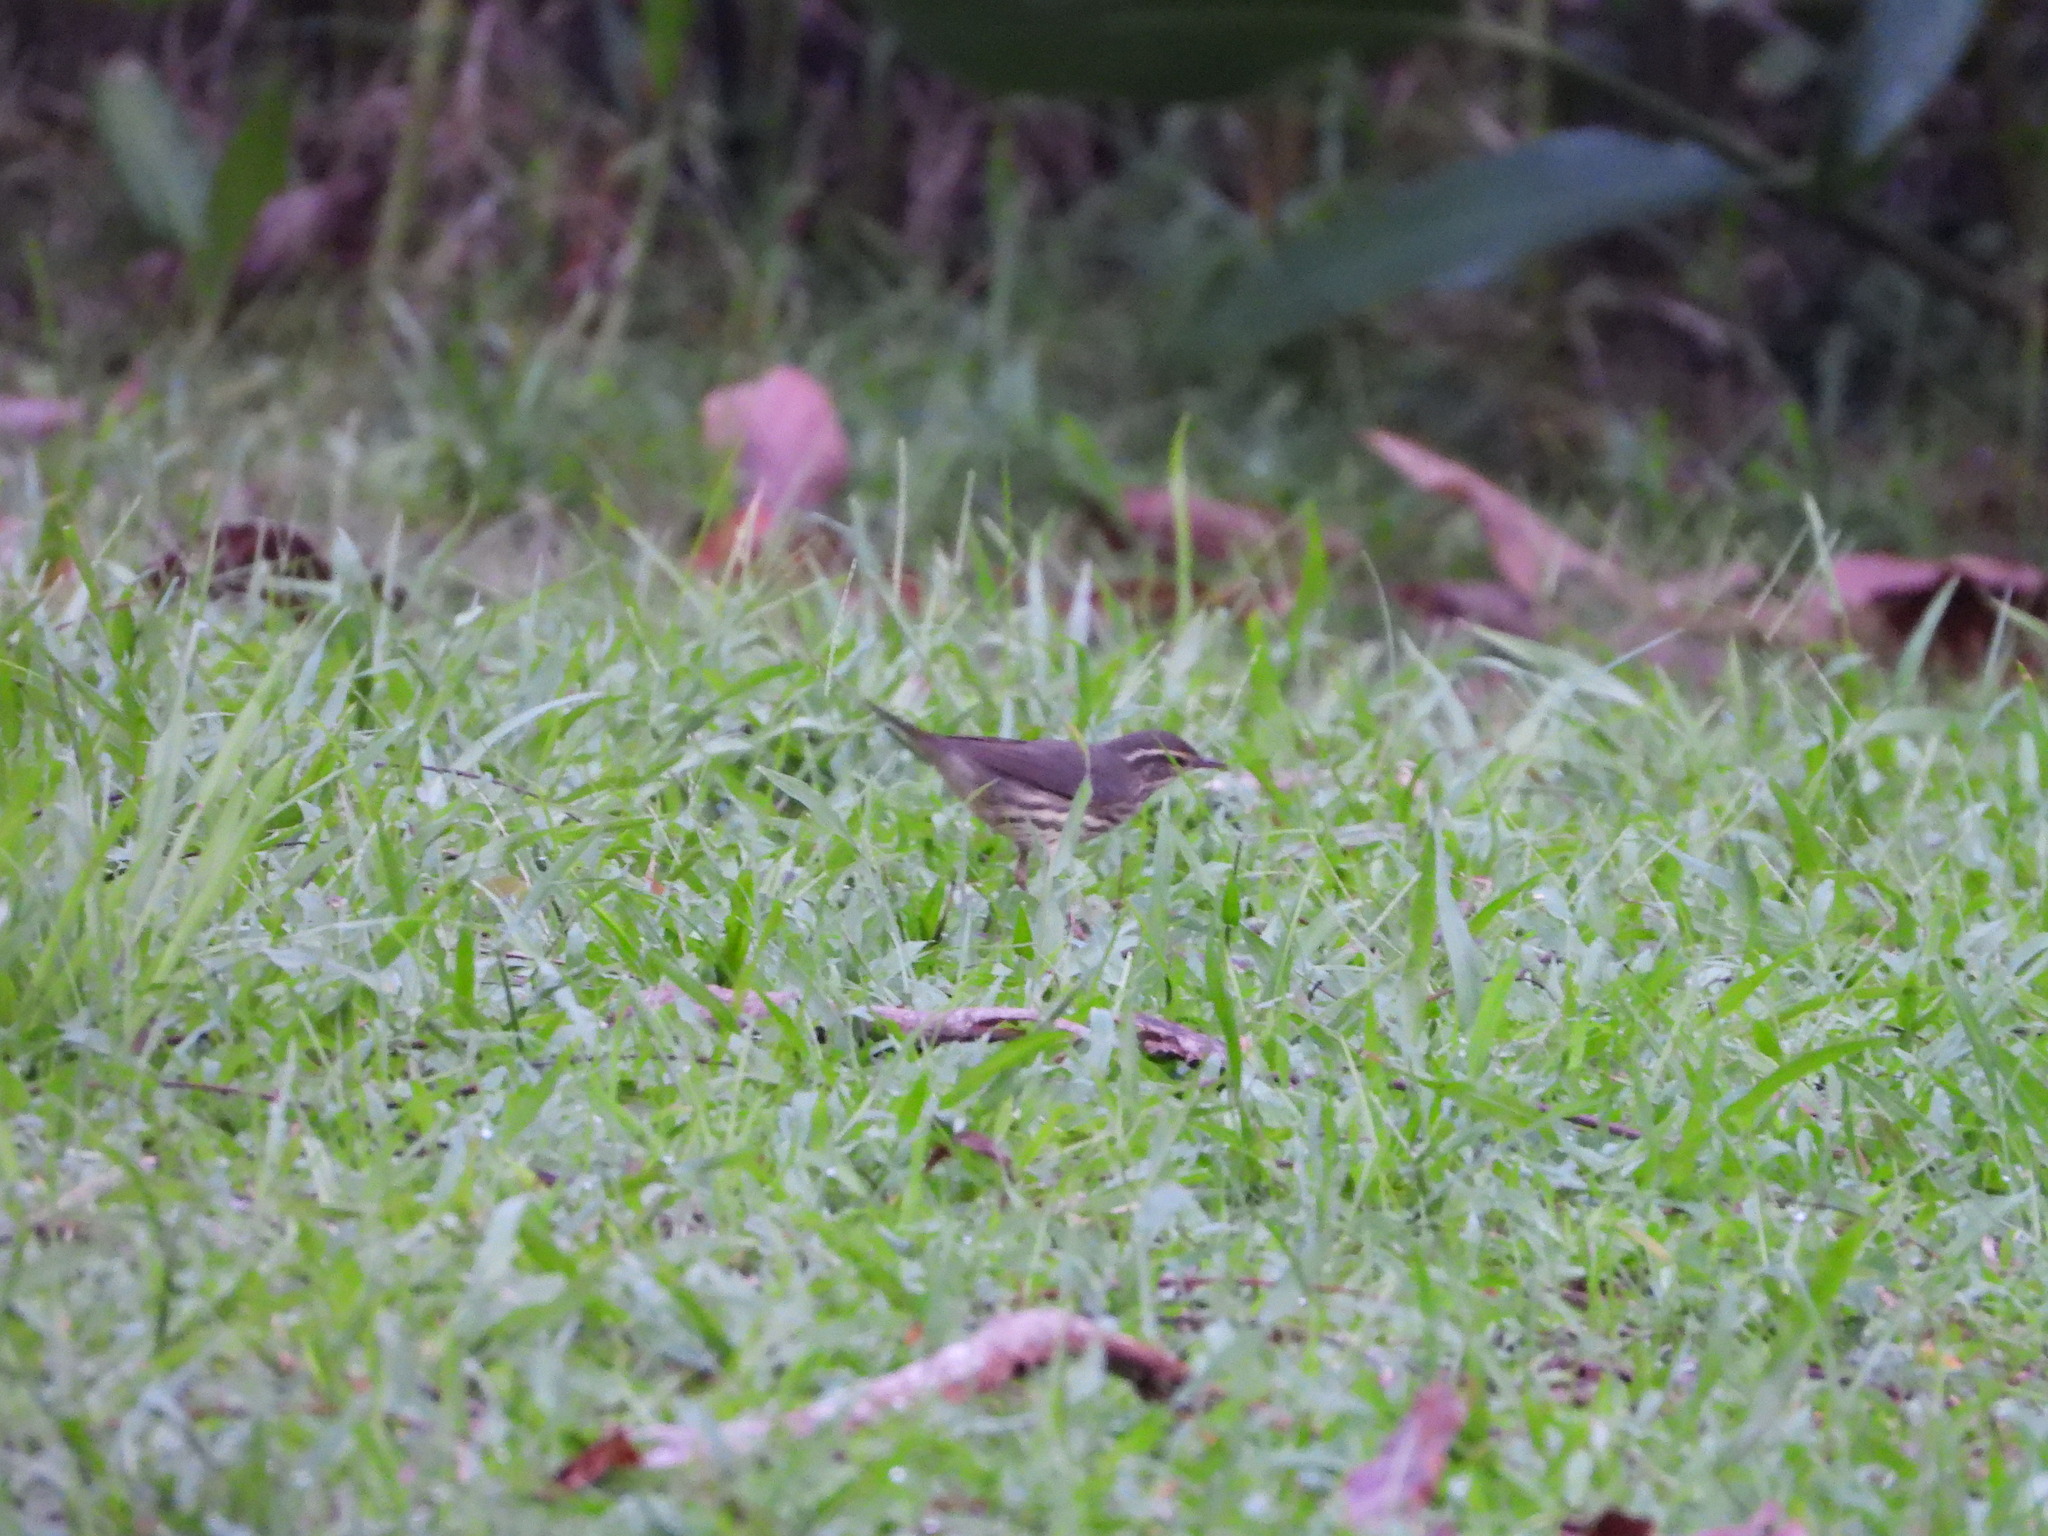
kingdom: Animalia
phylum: Chordata
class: Aves
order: Passeriformes
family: Parulidae
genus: Parkesia
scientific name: Parkesia noveboracensis
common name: Northern waterthrush
